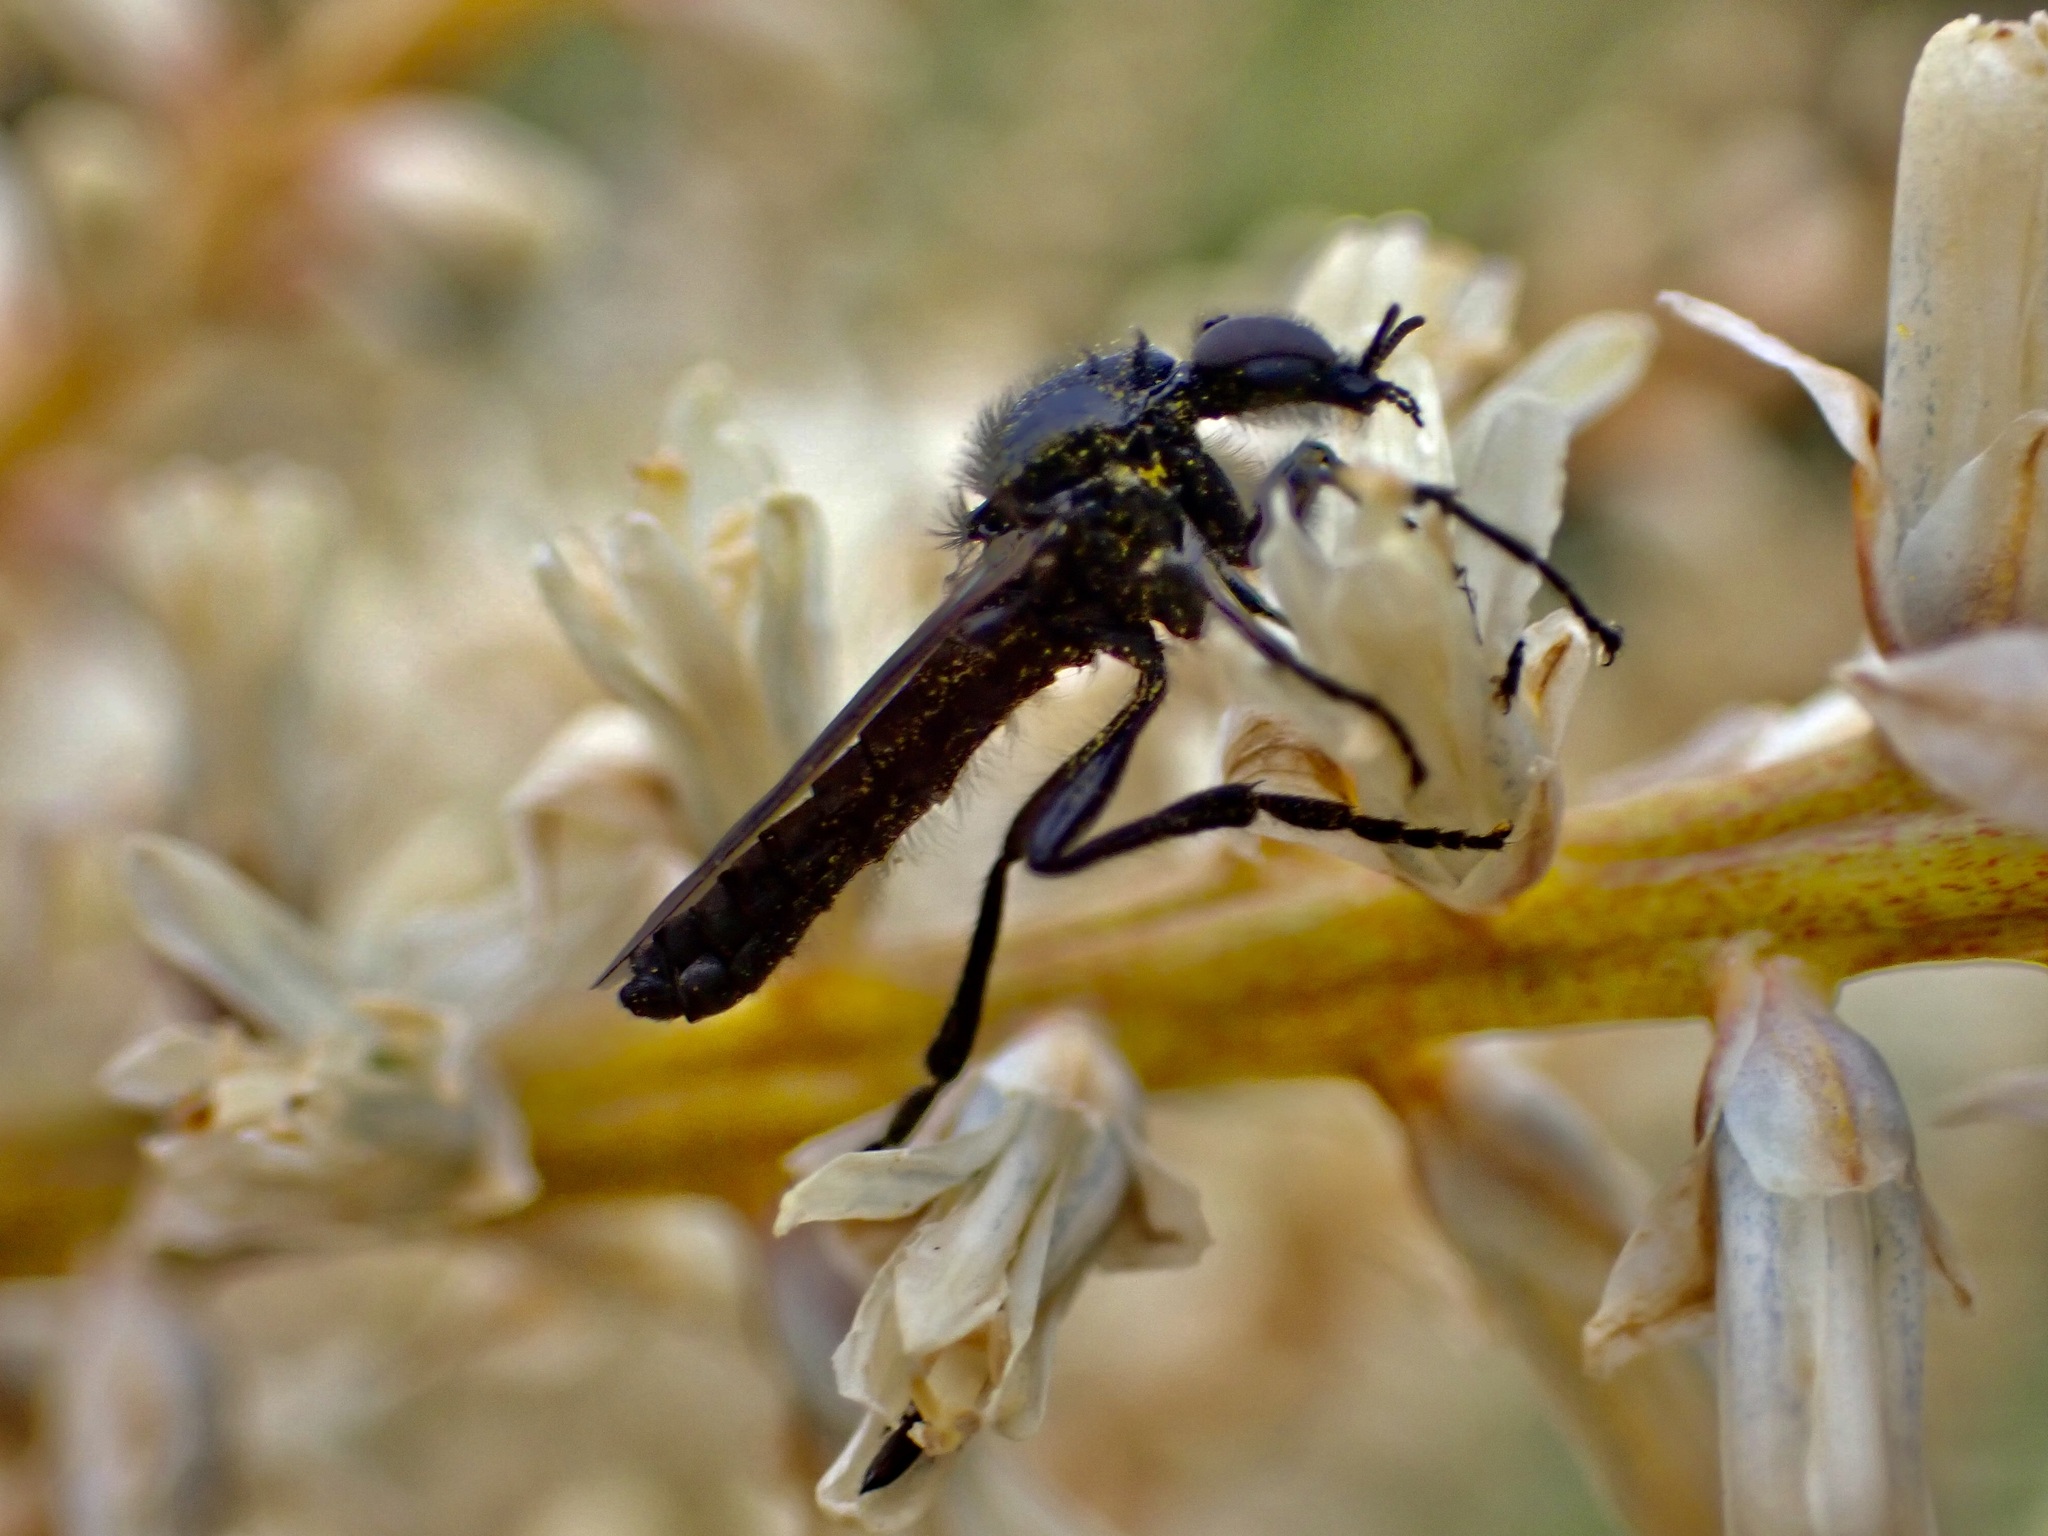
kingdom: Animalia
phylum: Arthropoda
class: Insecta
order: Diptera
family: Bibionidae
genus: Dilophus
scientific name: Dilophus nigrostigma
